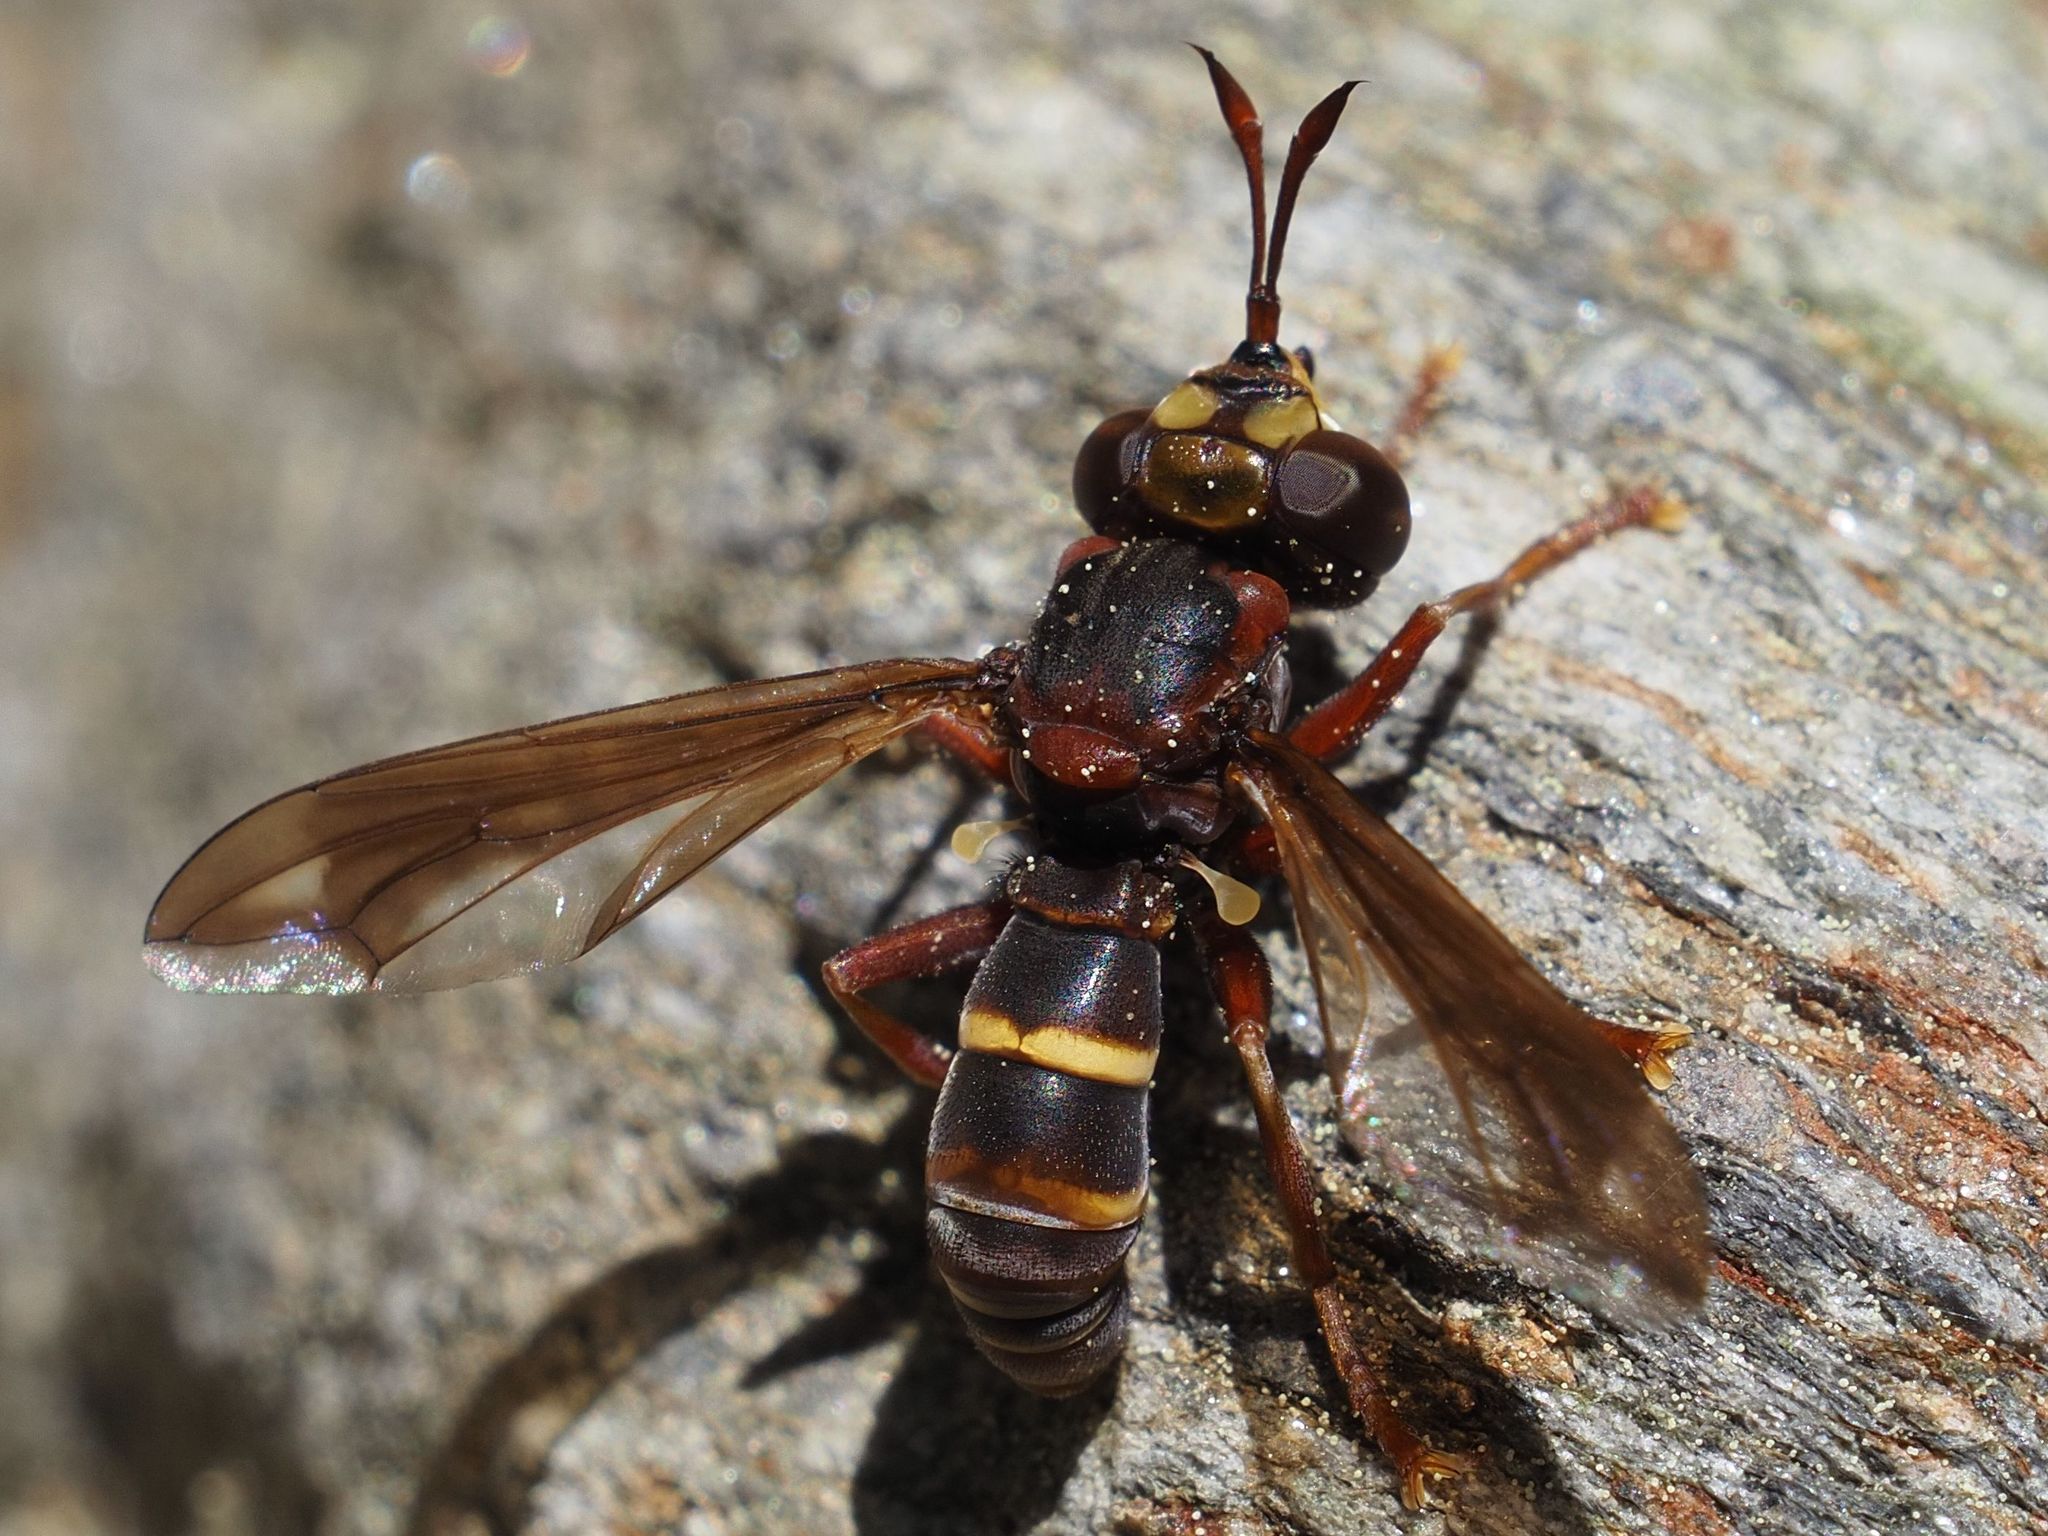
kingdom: Animalia
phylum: Arthropoda
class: Insecta
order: Diptera
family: Conopidae
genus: Conops
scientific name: Conops vesicularis
